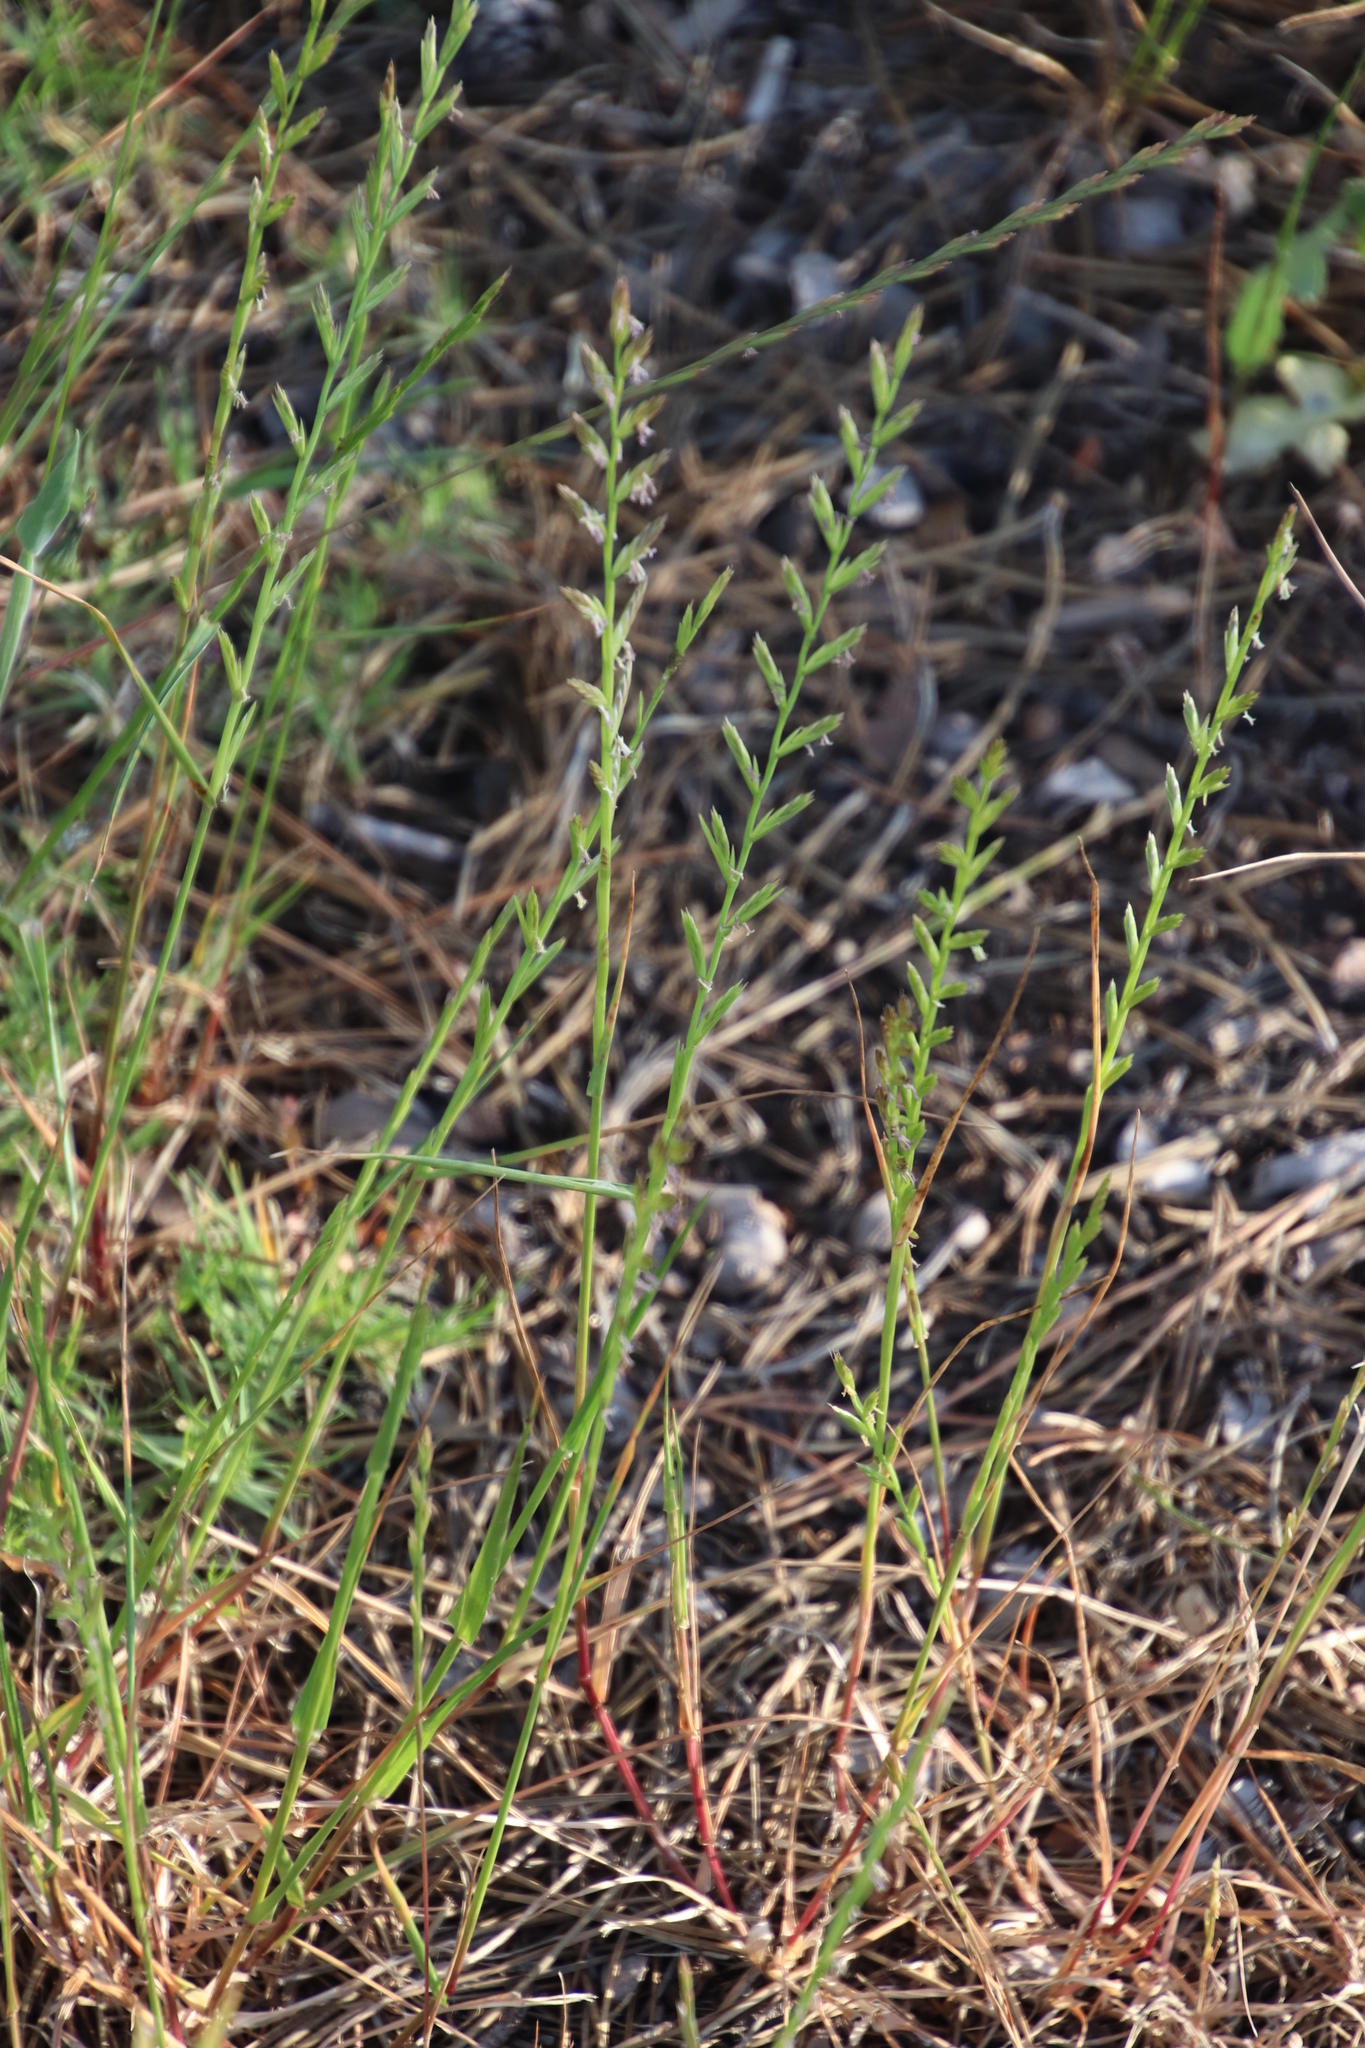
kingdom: Plantae
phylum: Tracheophyta
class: Liliopsida
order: Poales
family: Poaceae
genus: Lolium
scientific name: Lolium perenne
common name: Perennial ryegrass
